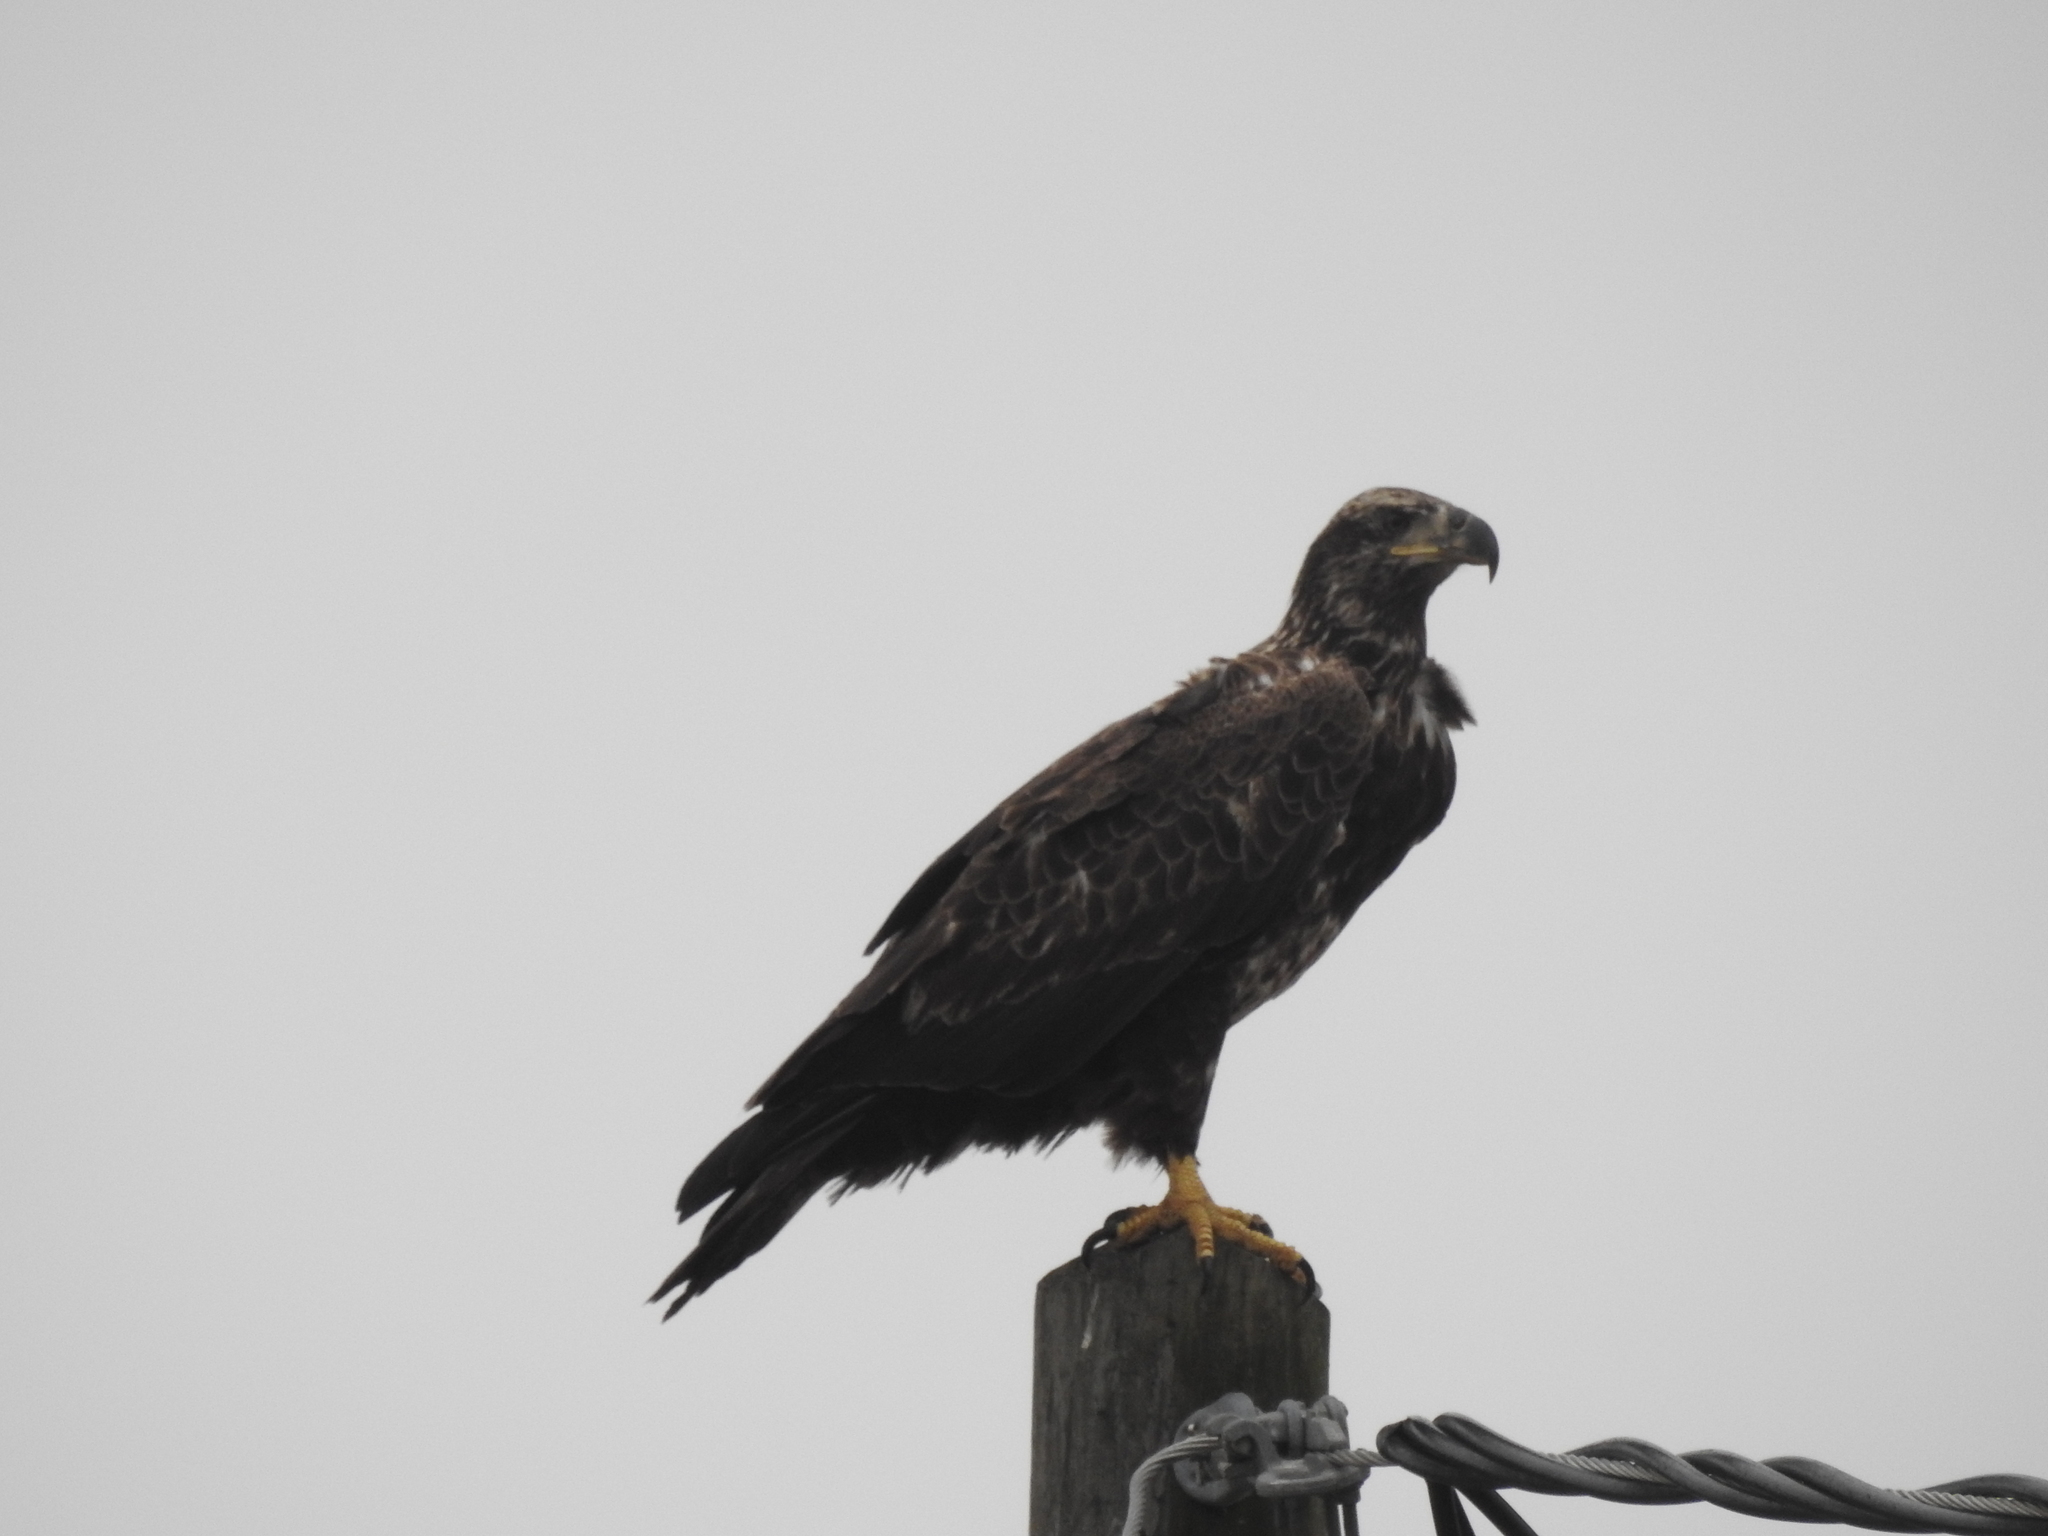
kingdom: Animalia
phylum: Chordata
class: Aves
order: Accipitriformes
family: Accipitridae
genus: Haliaeetus
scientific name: Haliaeetus leucocephalus
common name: Bald eagle
